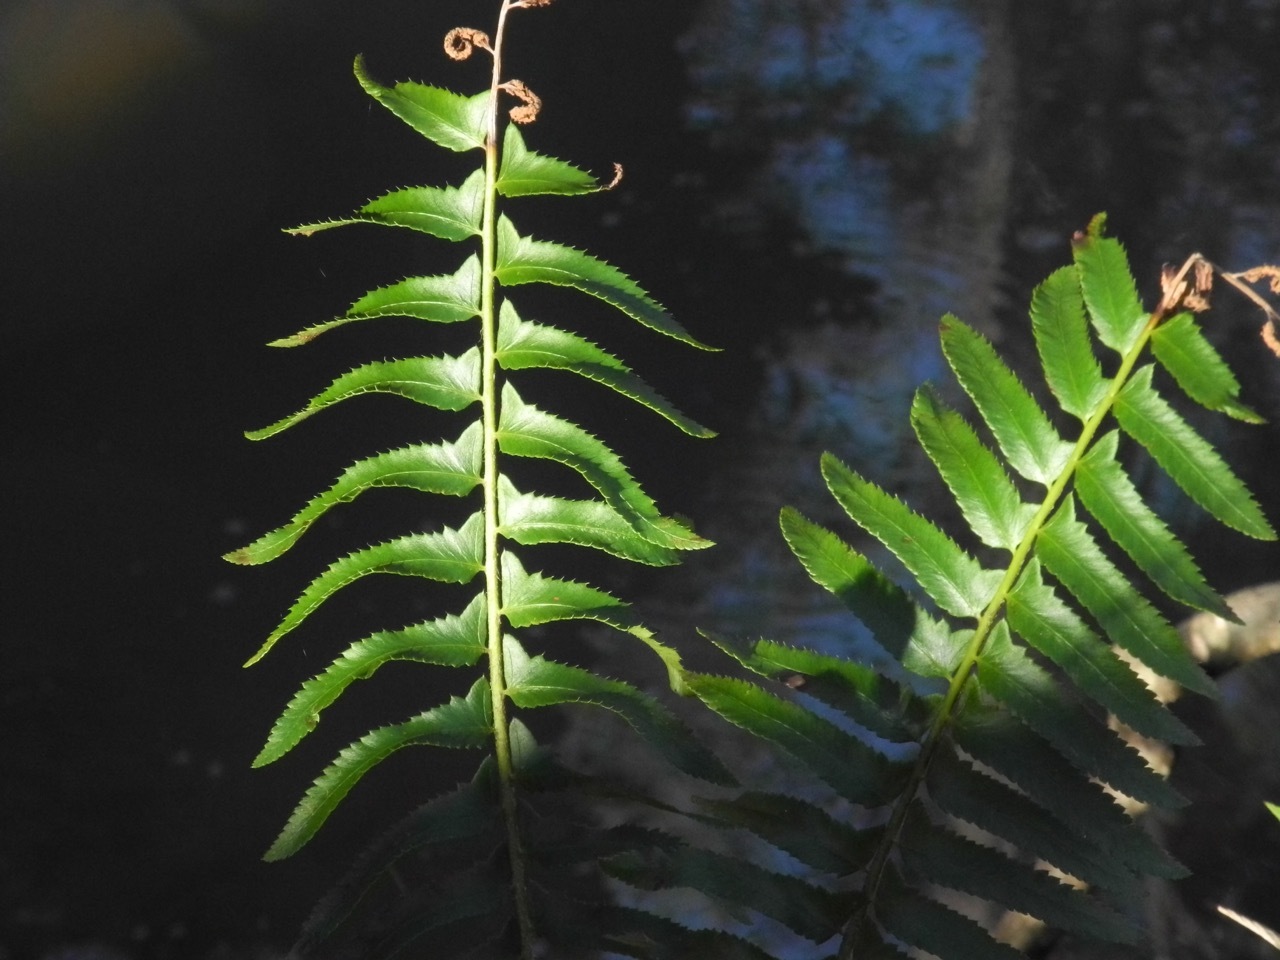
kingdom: Plantae
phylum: Tracheophyta
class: Polypodiopsida
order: Polypodiales
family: Dryopteridaceae
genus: Polystichum
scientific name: Polystichum acrostichoides
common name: Christmas fern
